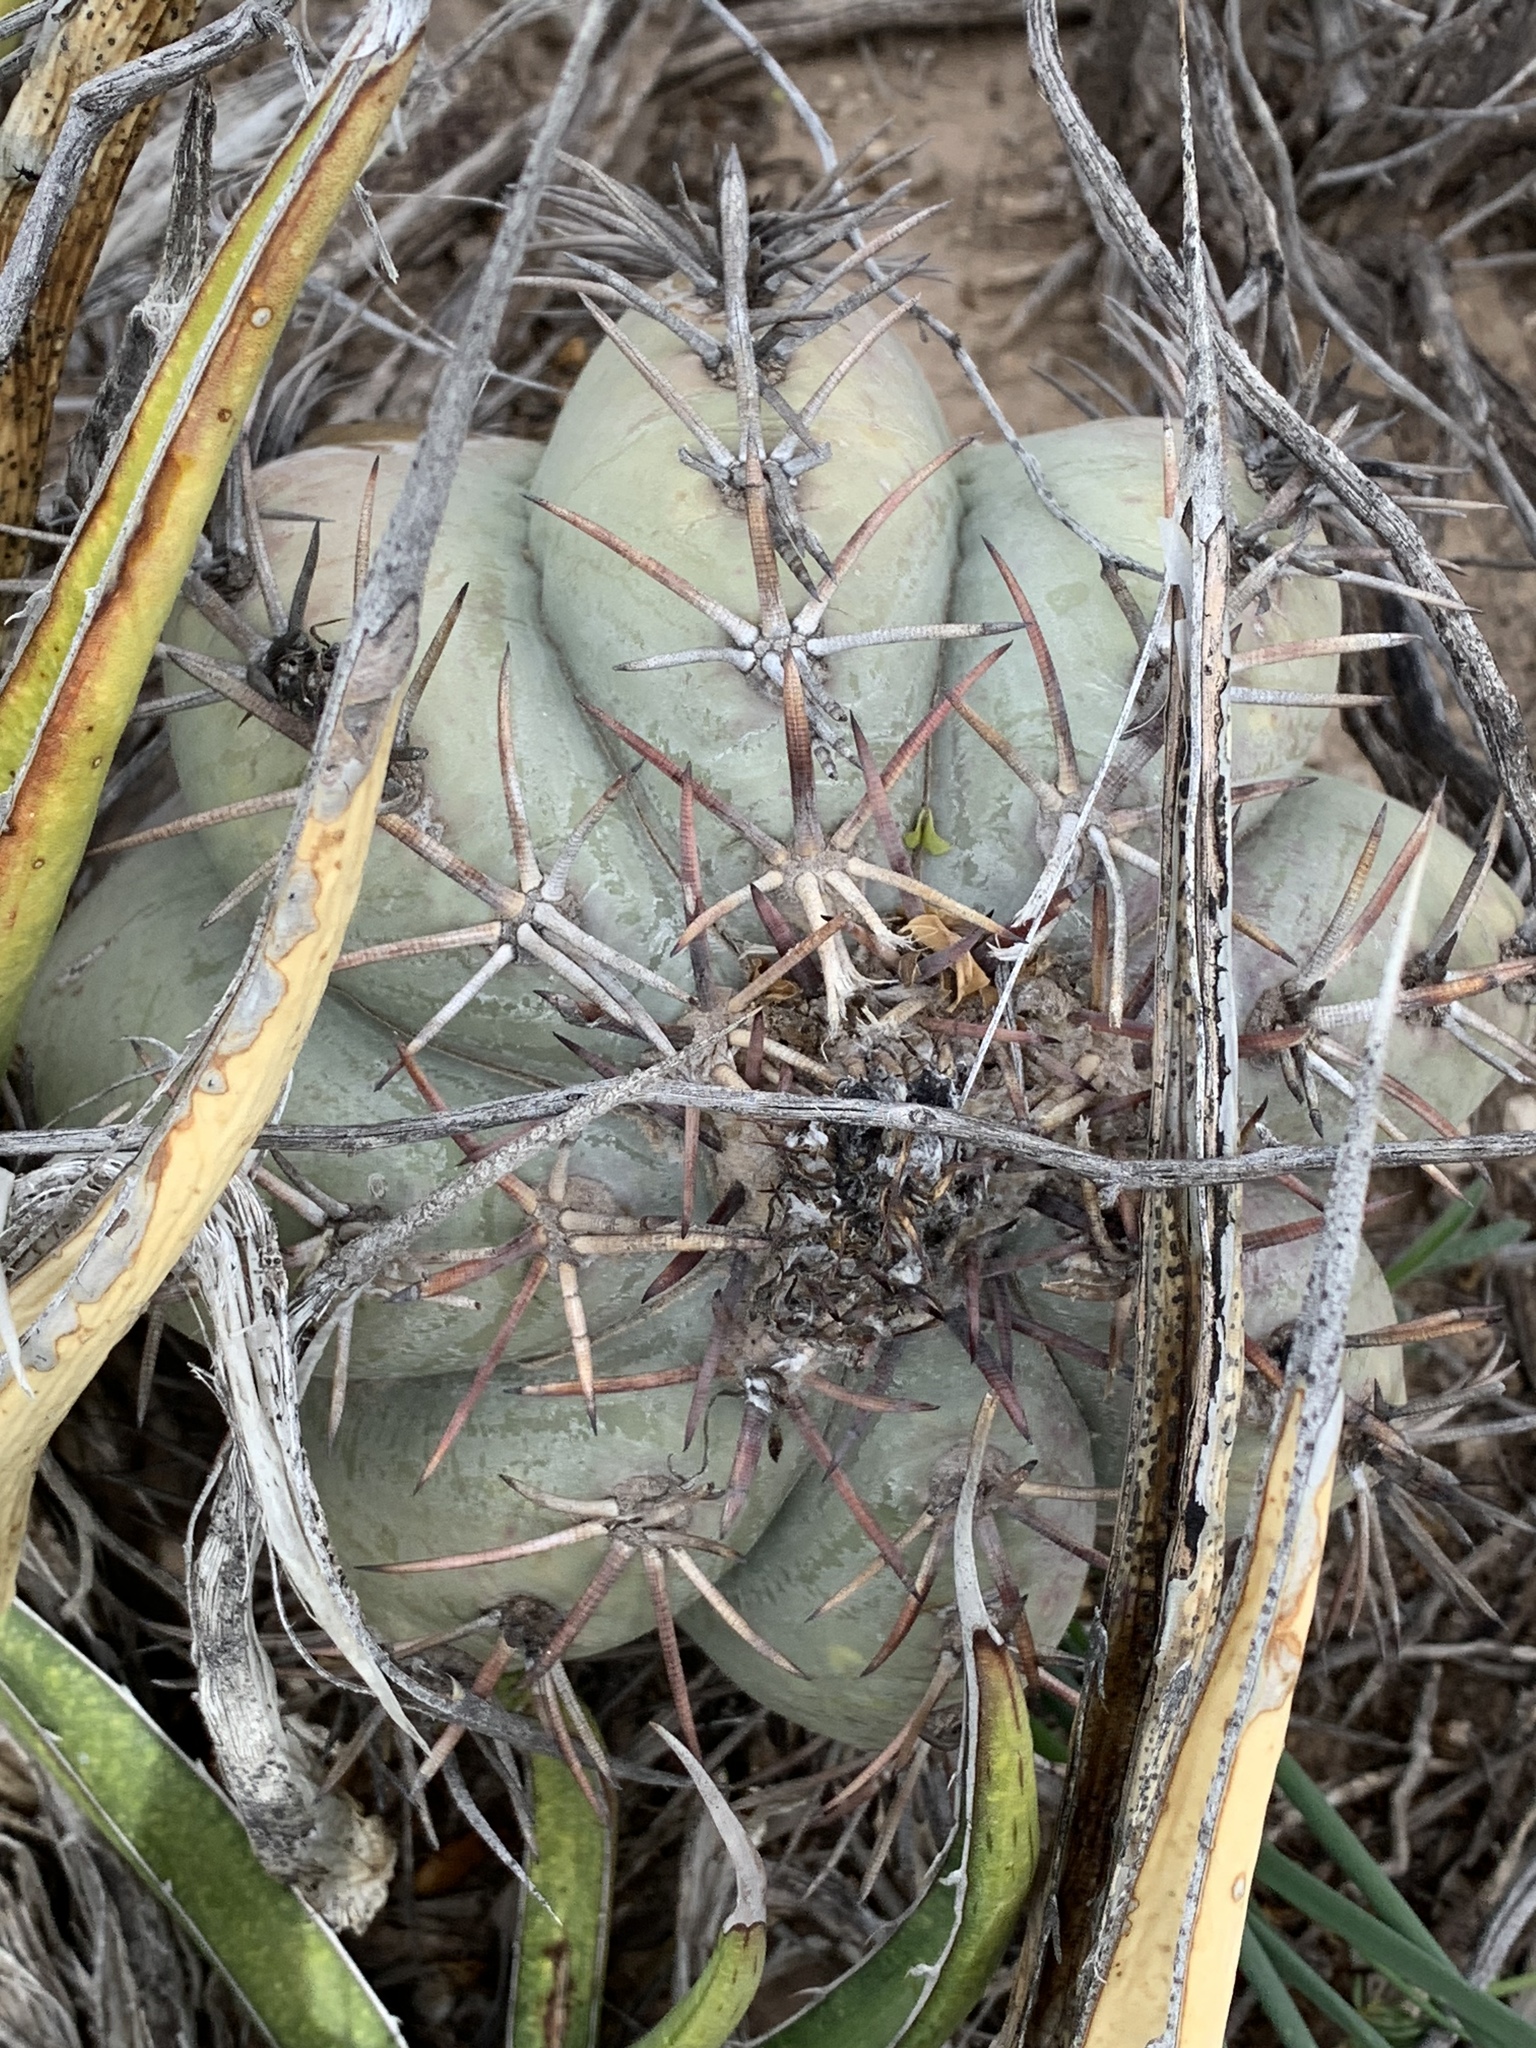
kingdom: Plantae
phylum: Tracheophyta
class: Magnoliopsida
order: Caryophyllales
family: Cactaceae
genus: Echinocactus
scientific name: Echinocactus horizonthalonius
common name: Devilshead
